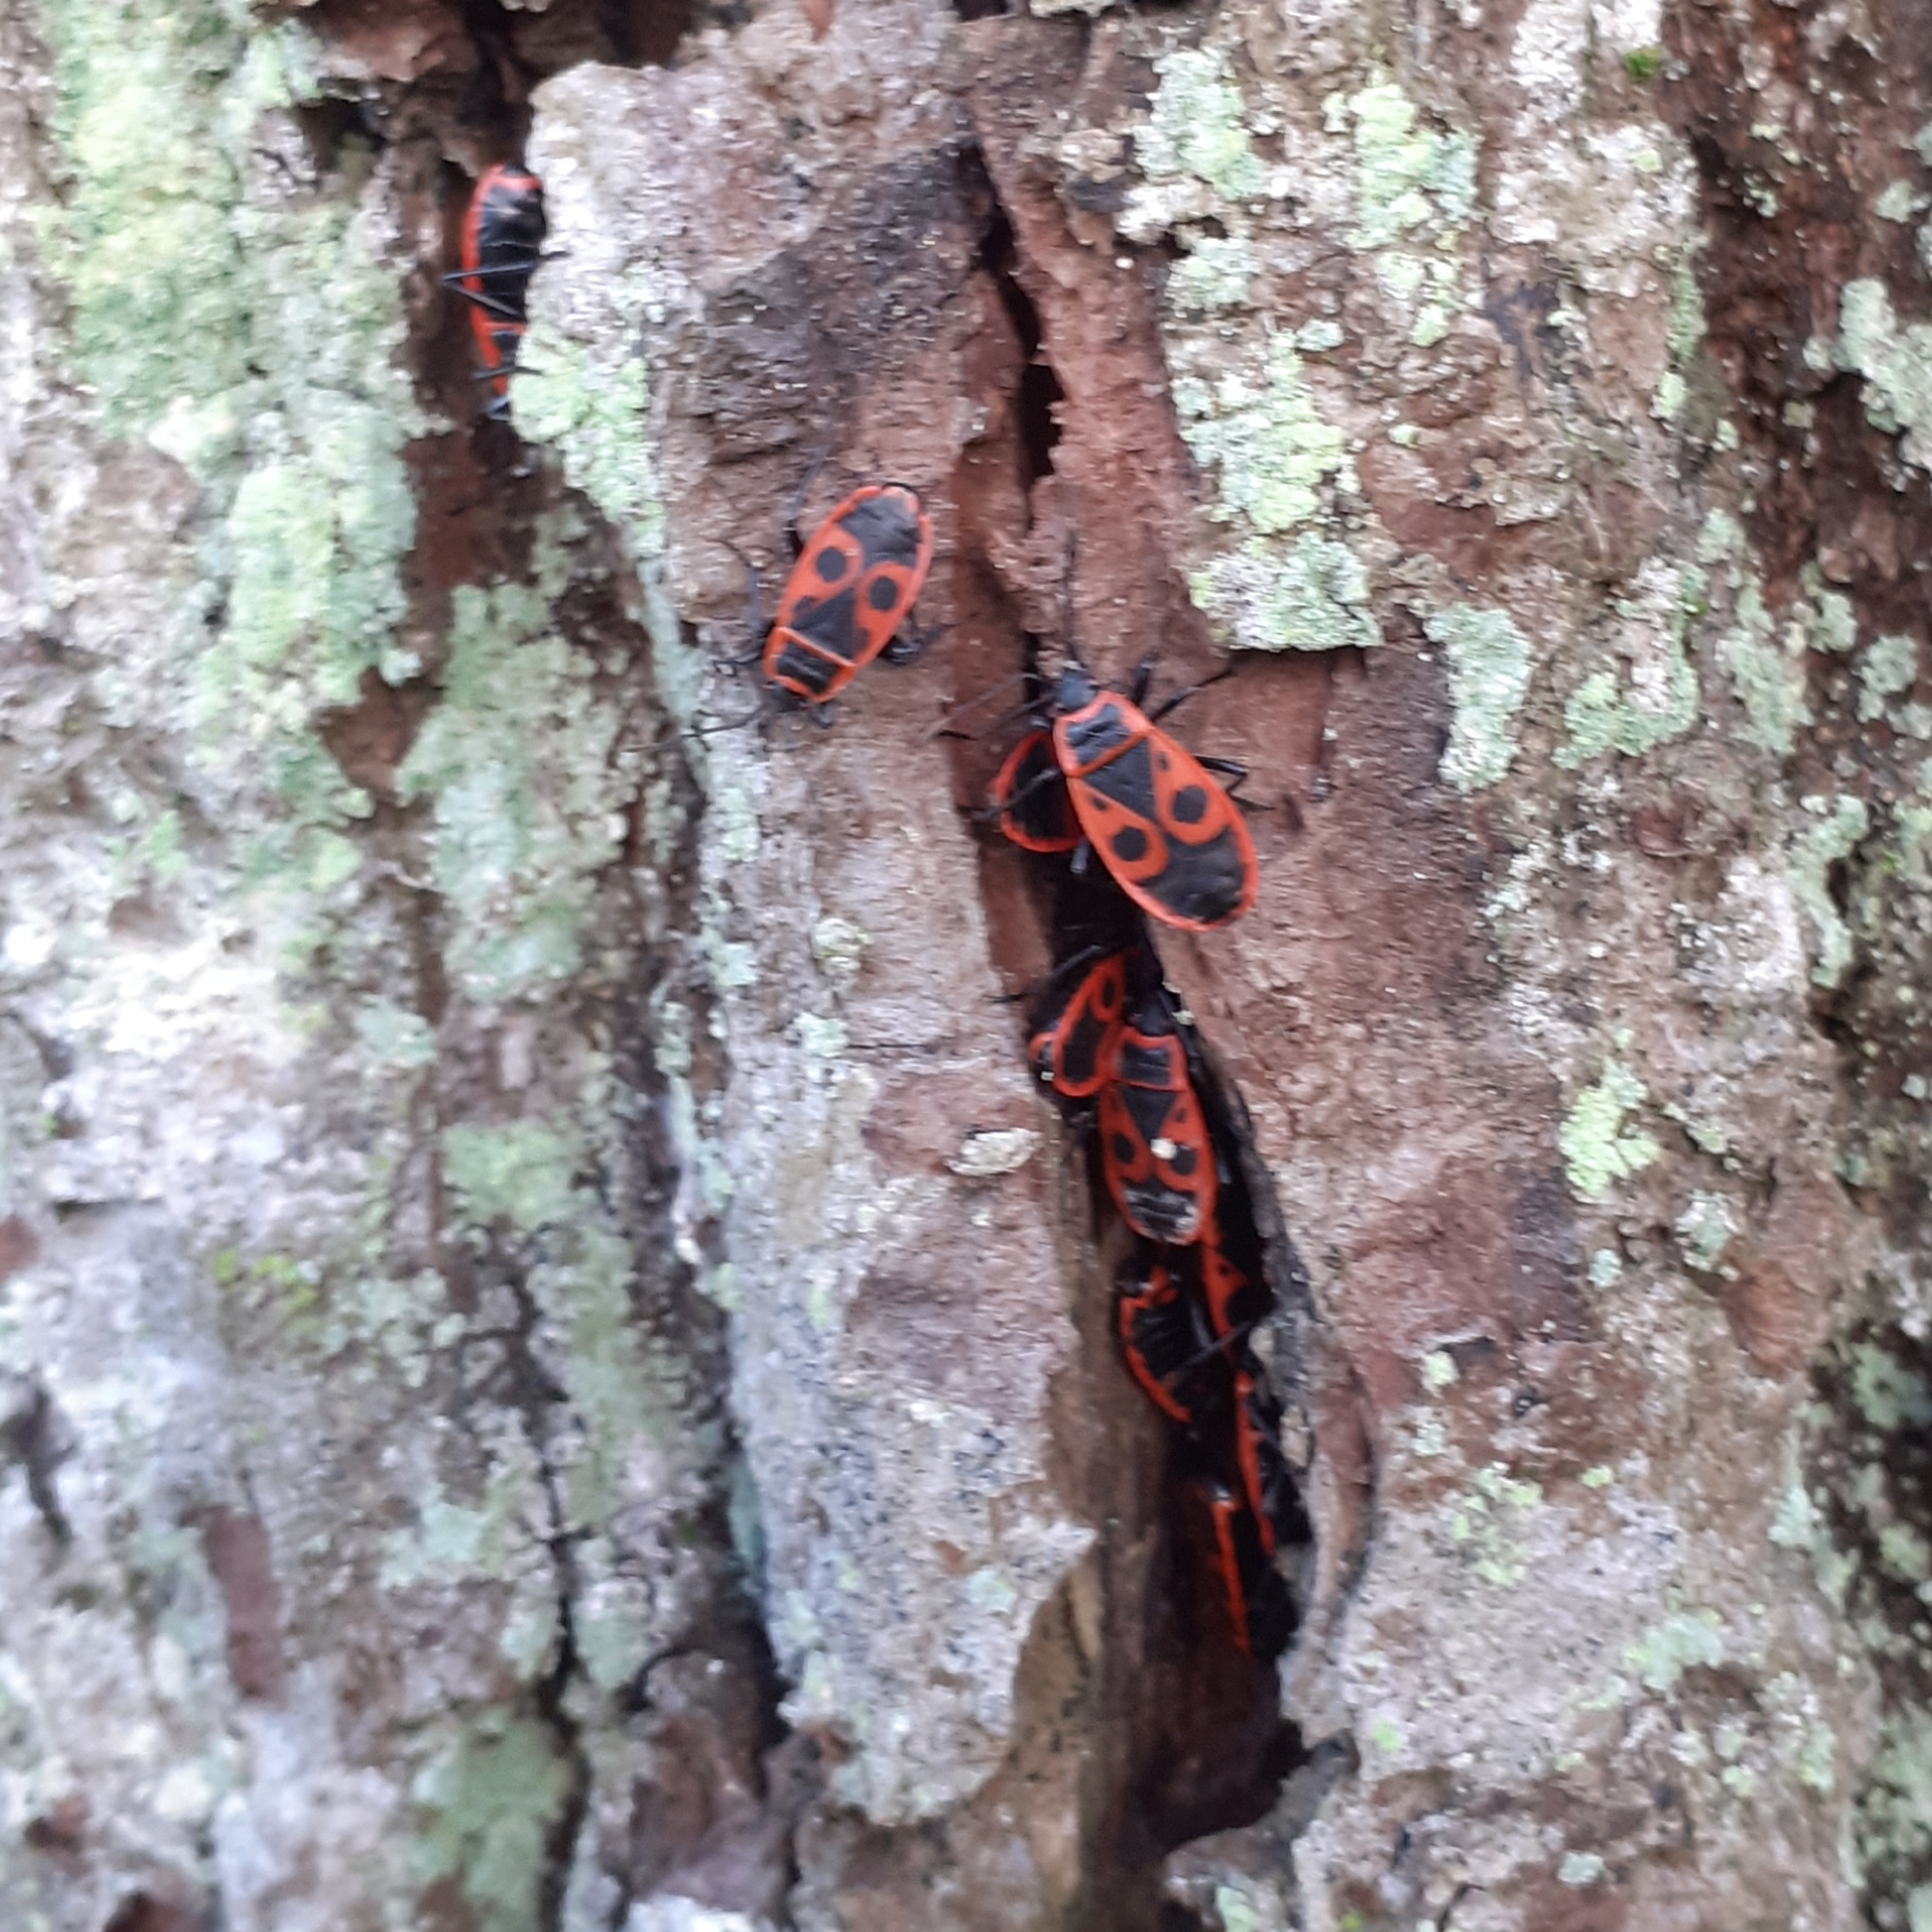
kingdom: Animalia
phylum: Arthropoda
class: Insecta
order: Hemiptera
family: Pyrrhocoridae
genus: Pyrrhocoris
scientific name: Pyrrhocoris apterus
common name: Firebug
